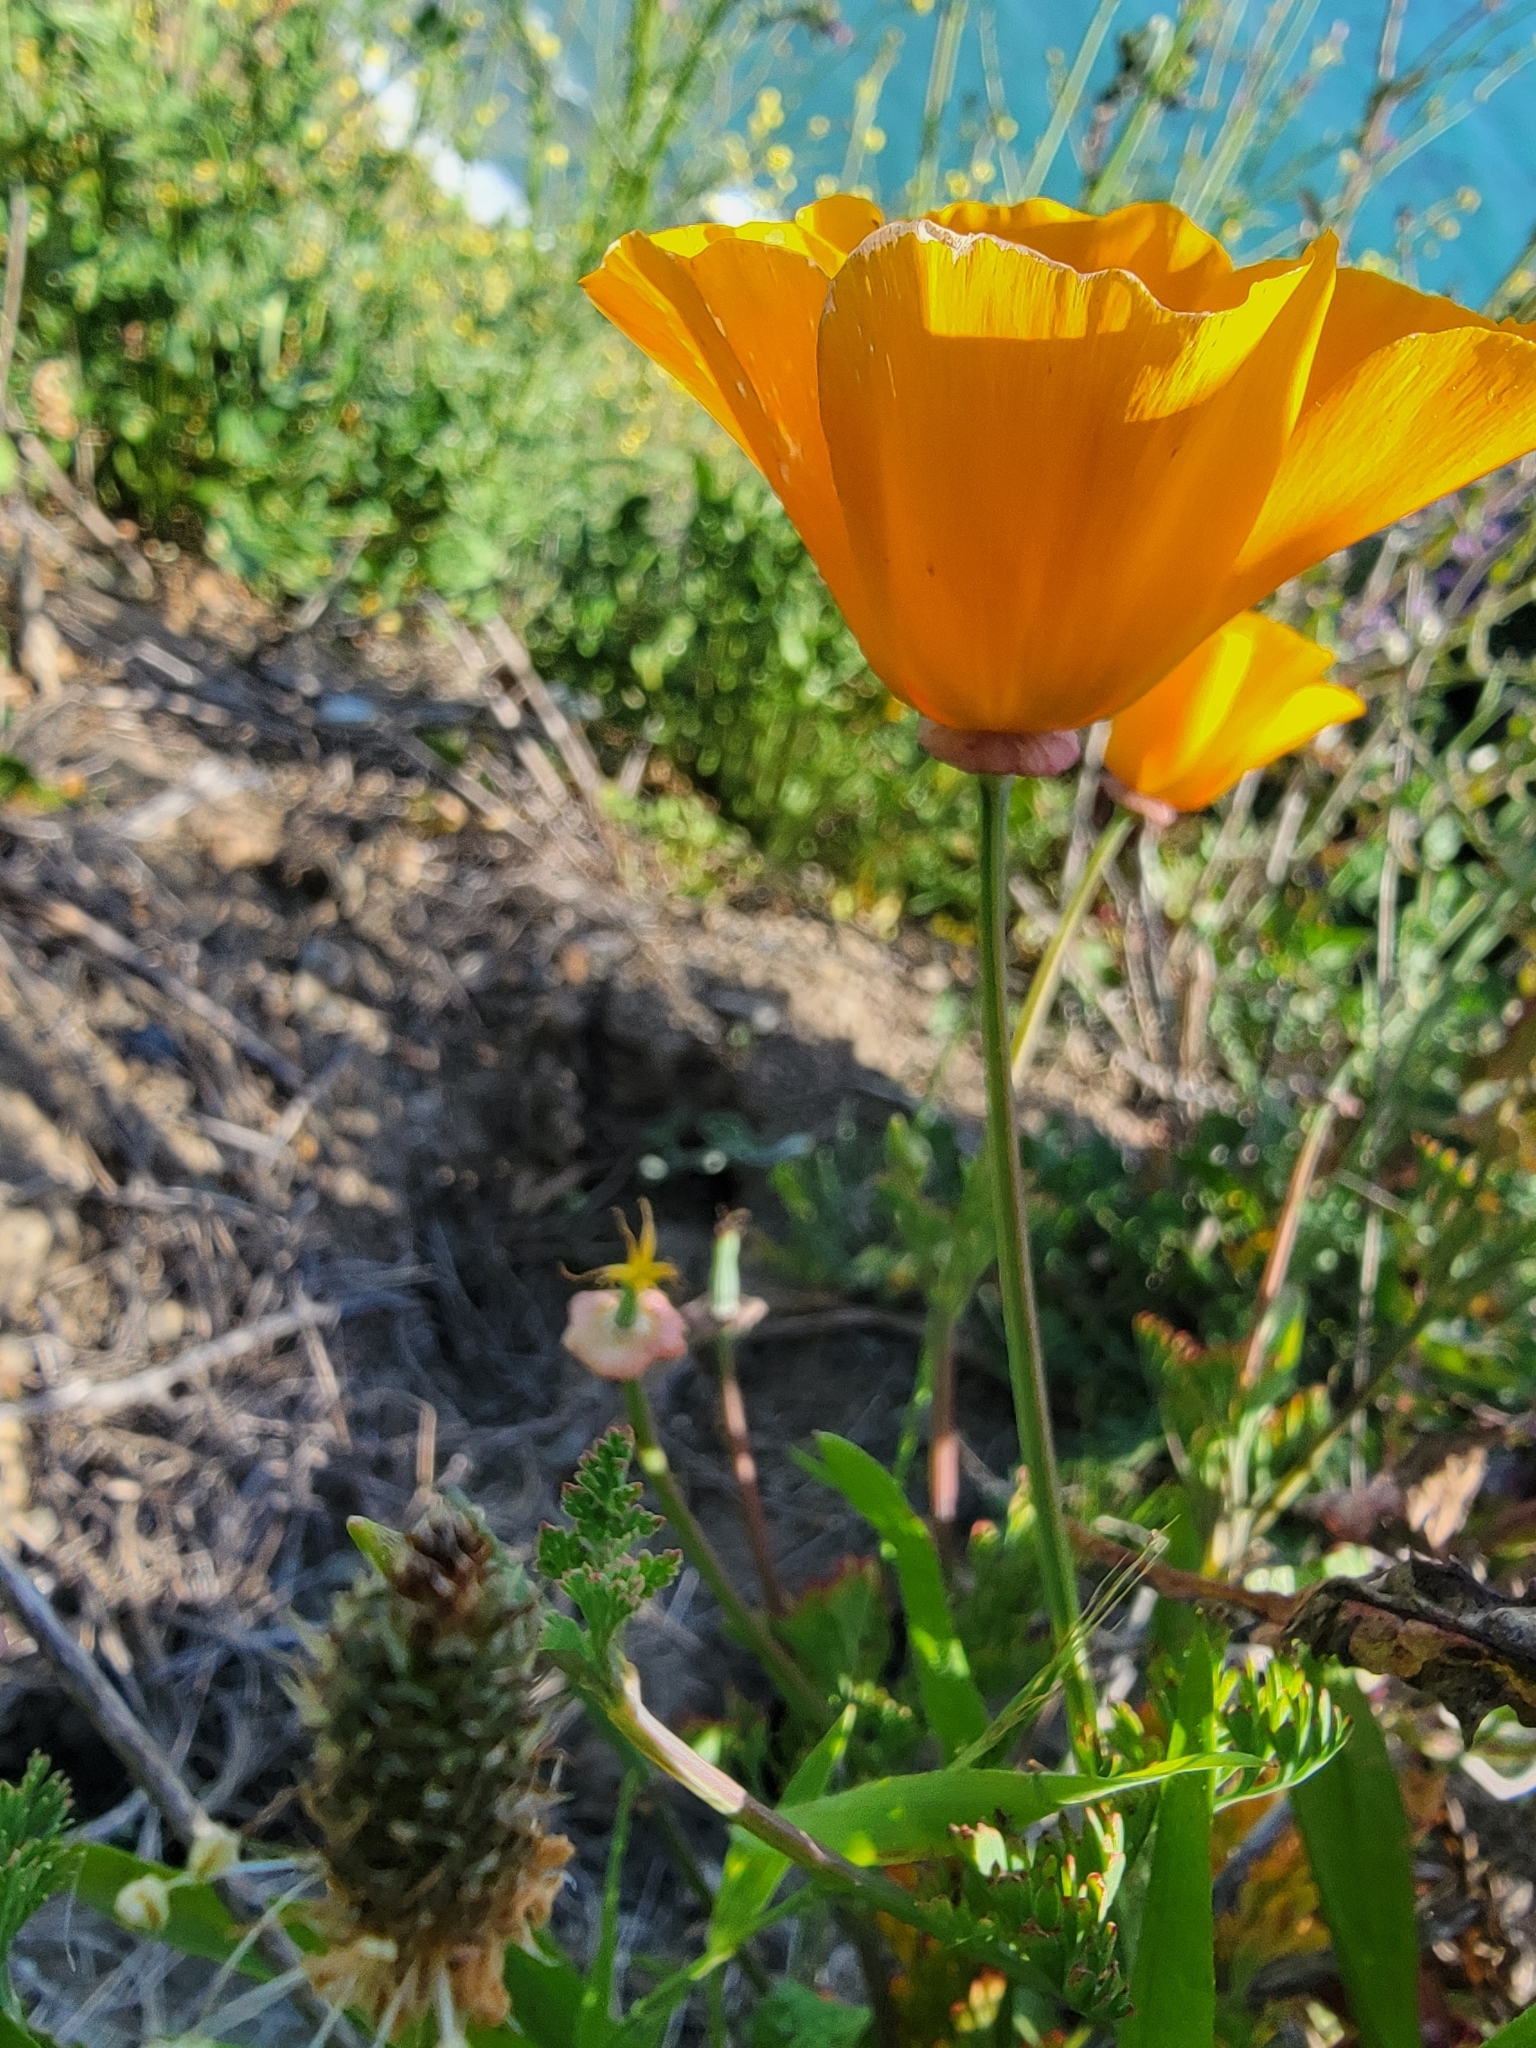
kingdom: Plantae
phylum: Tracheophyta
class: Magnoliopsida
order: Ranunculales
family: Papaveraceae
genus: Eschscholzia
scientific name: Eschscholzia californica
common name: California poppy
